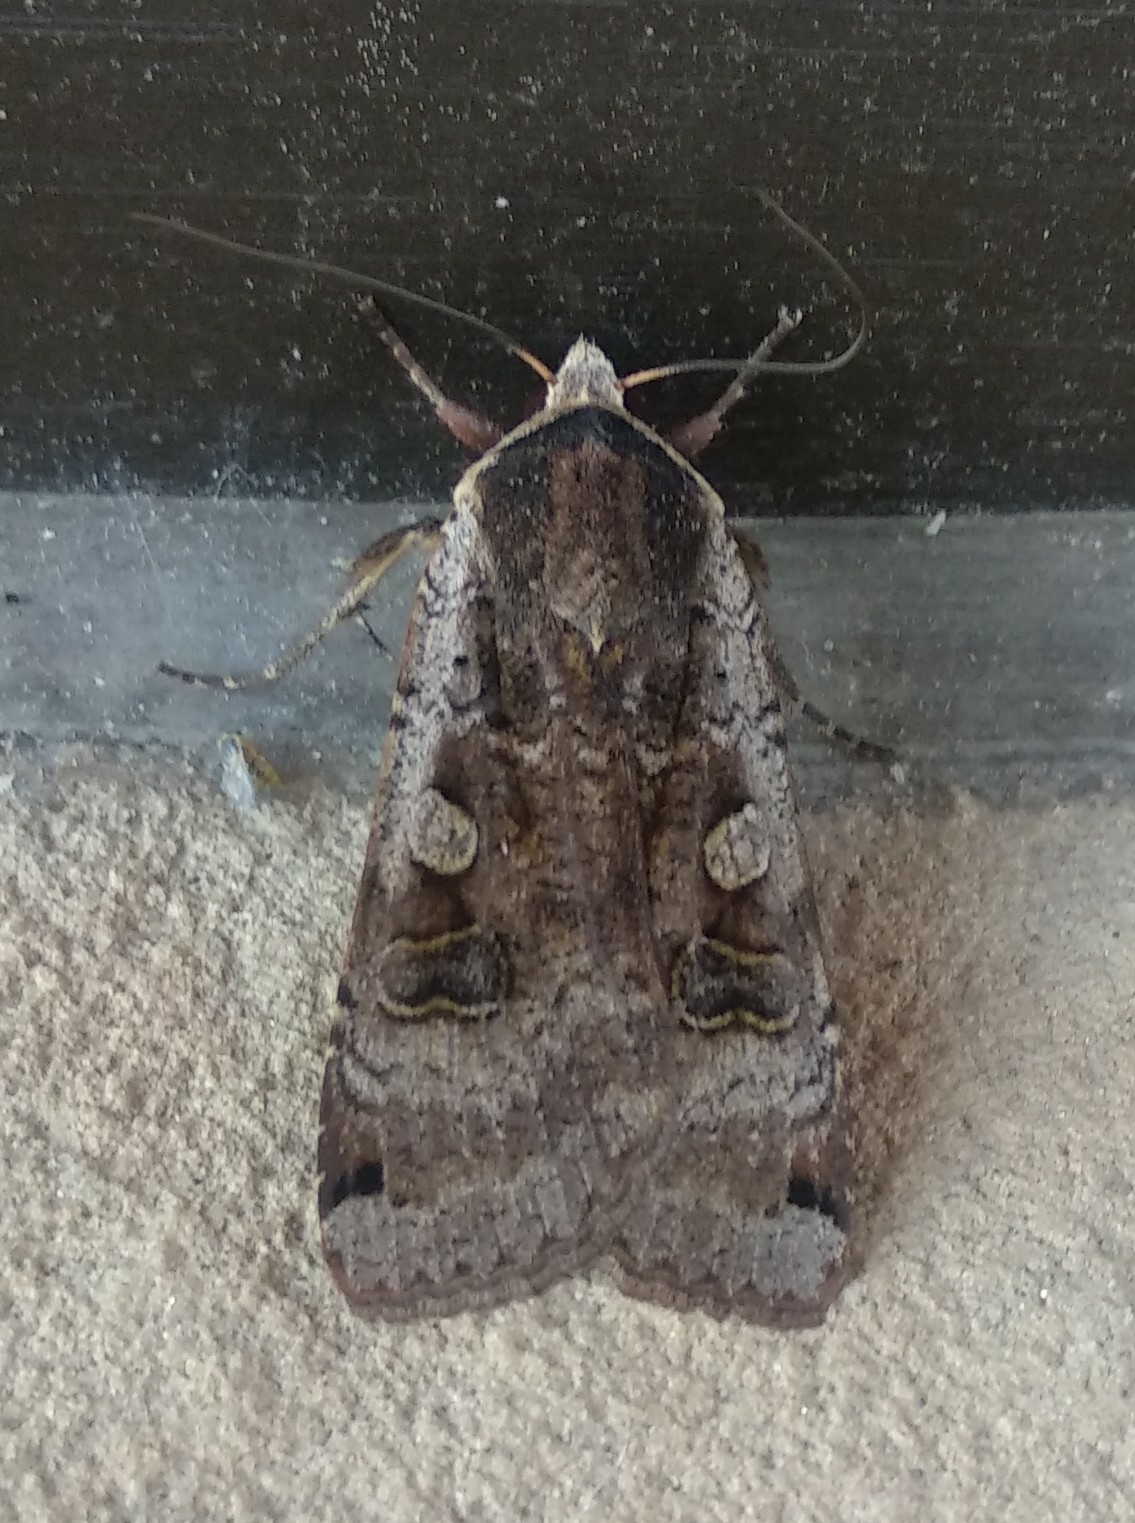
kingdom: Animalia
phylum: Arthropoda
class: Insecta
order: Lepidoptera
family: Noctuidae
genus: Noctua
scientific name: Noctua pronuba
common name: Large yellow underwing
